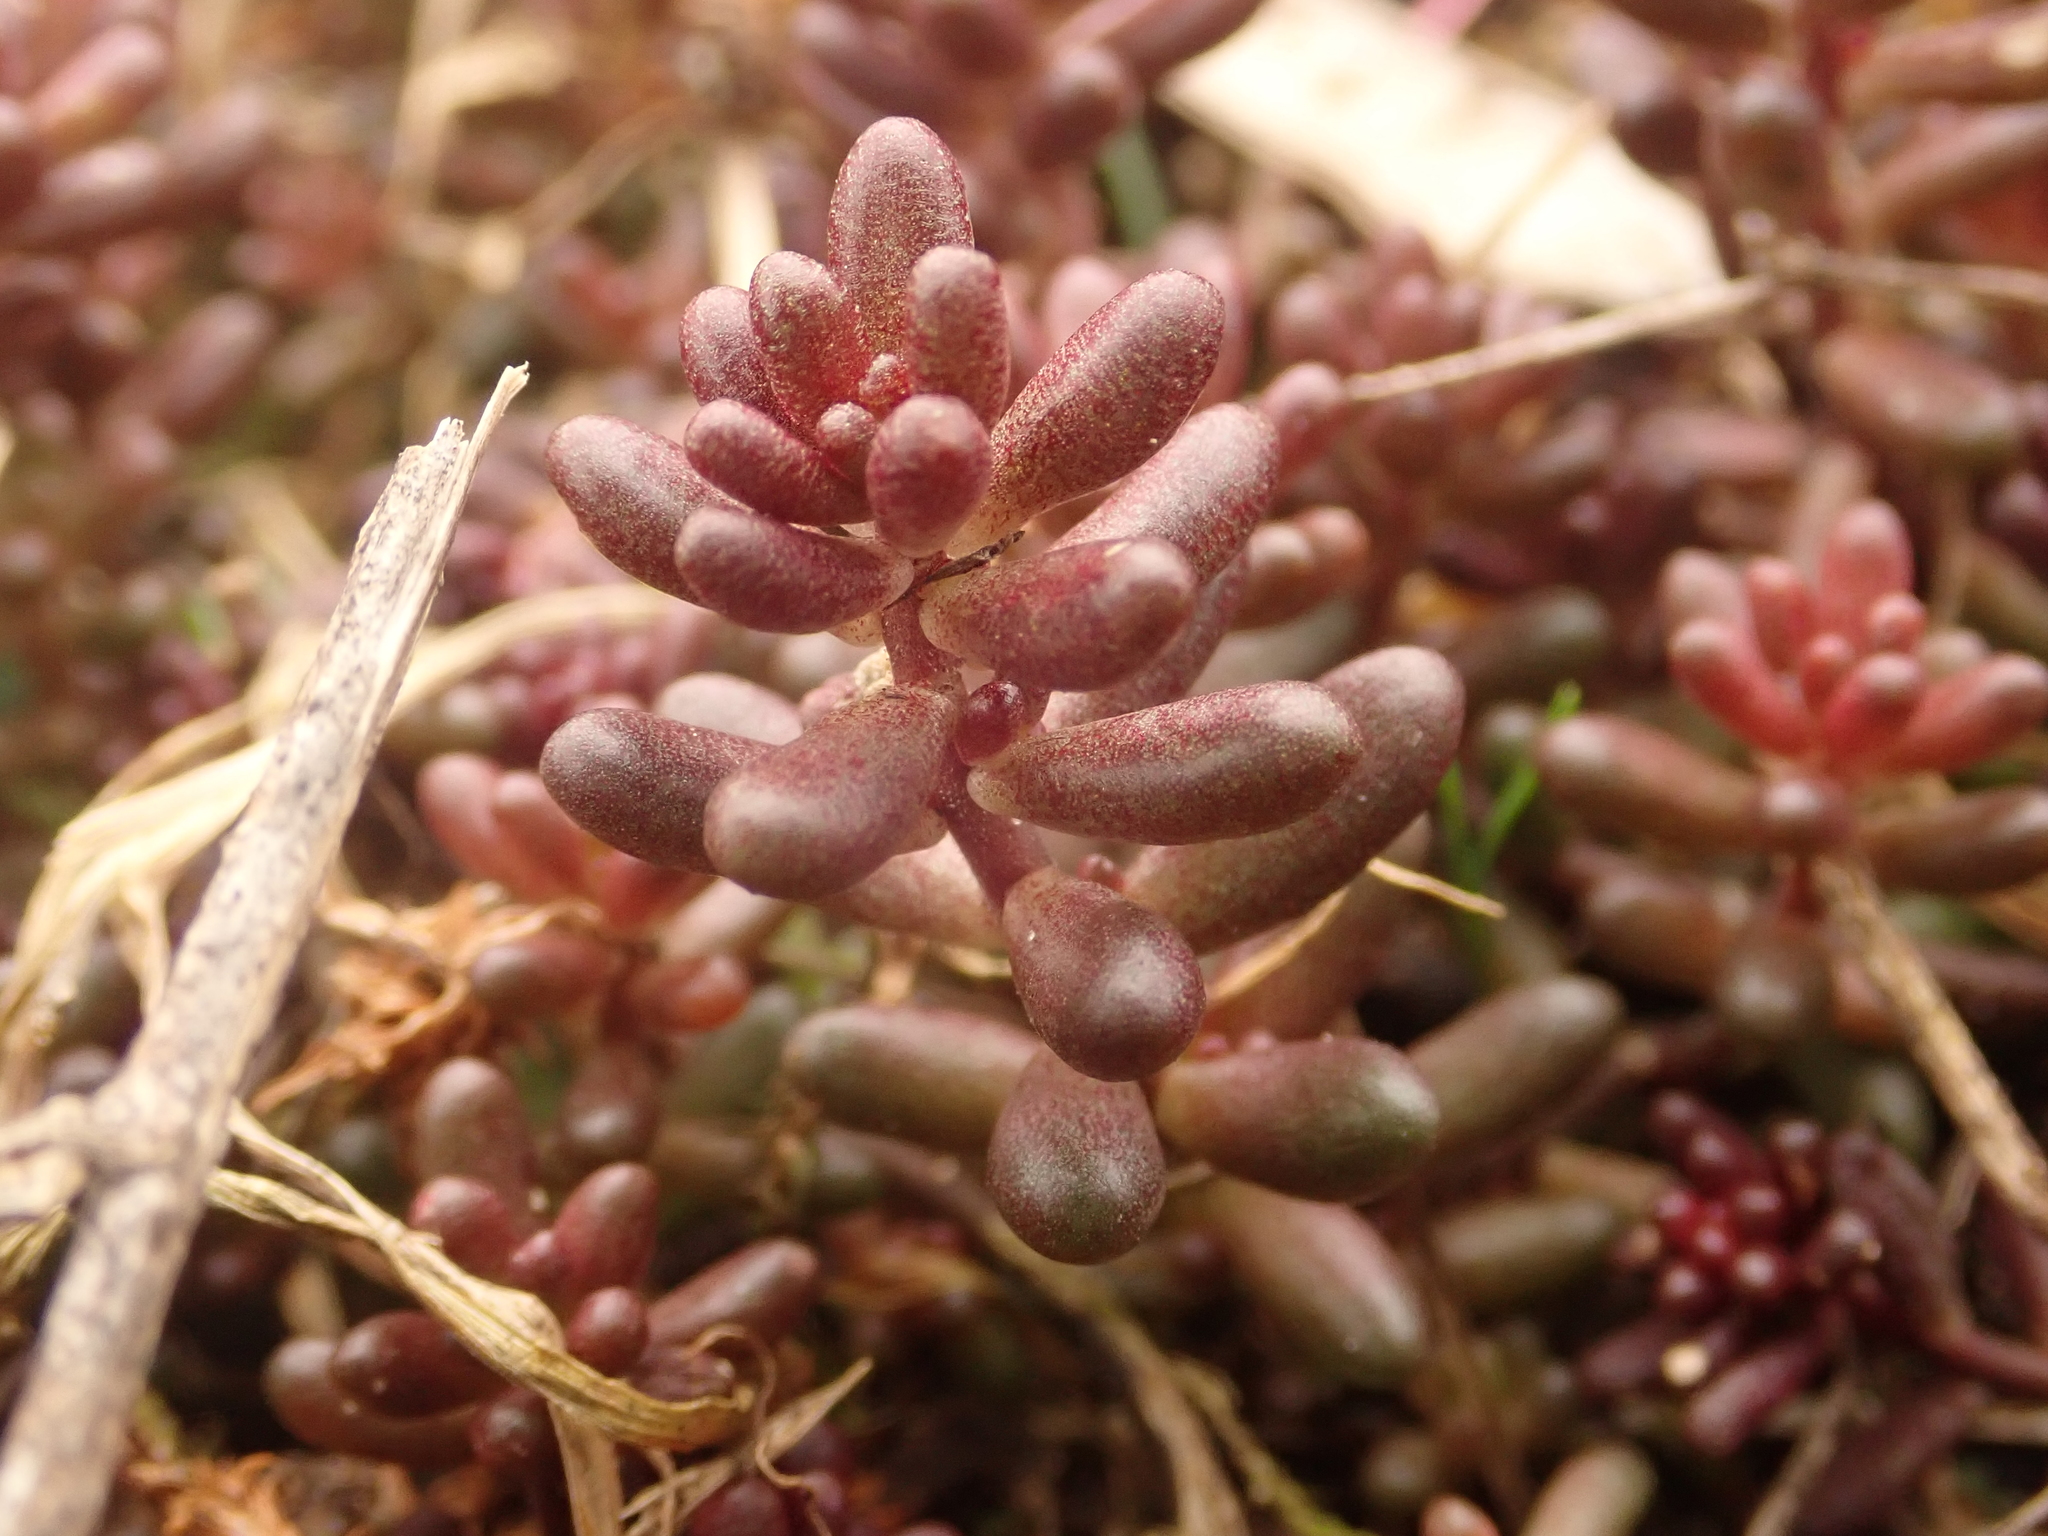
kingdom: Plantae
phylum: Tracheophyta
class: Magnoliopsida
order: Saxifragales
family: Crassulaceae
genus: Sedum
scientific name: Sedum album
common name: White stonecrop
